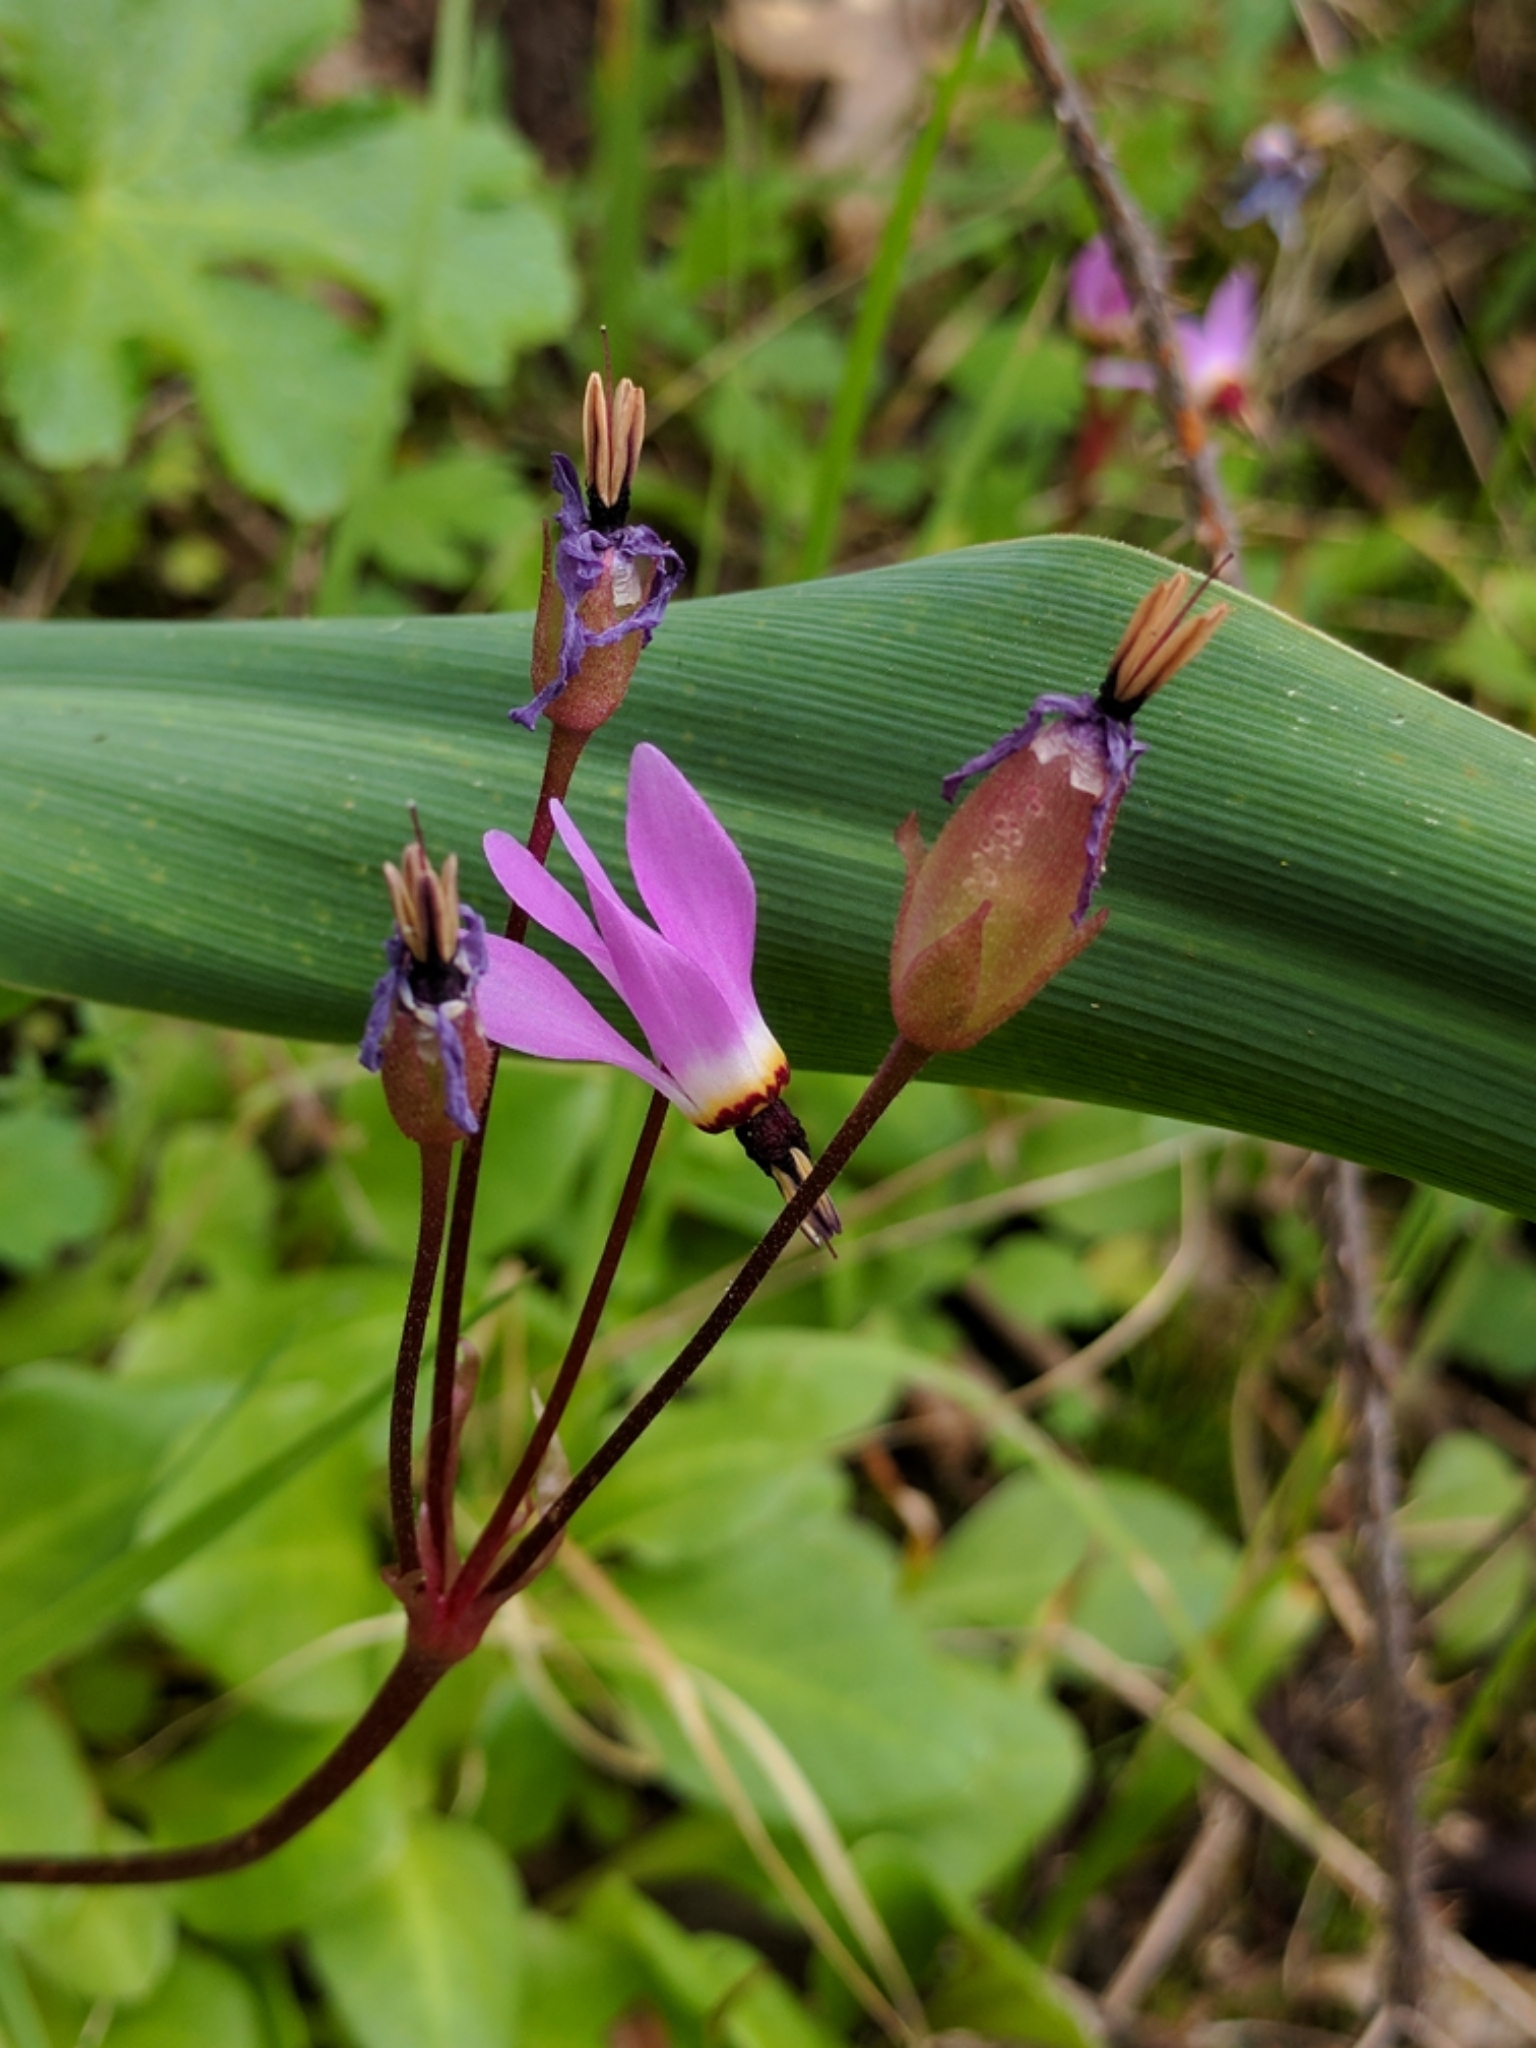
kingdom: Plantae
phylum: Tracheophyta
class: Magnoliopsida
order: Ericales
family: Primulaceae
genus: Dodecatheon
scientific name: Dodecatheon hendersonii
